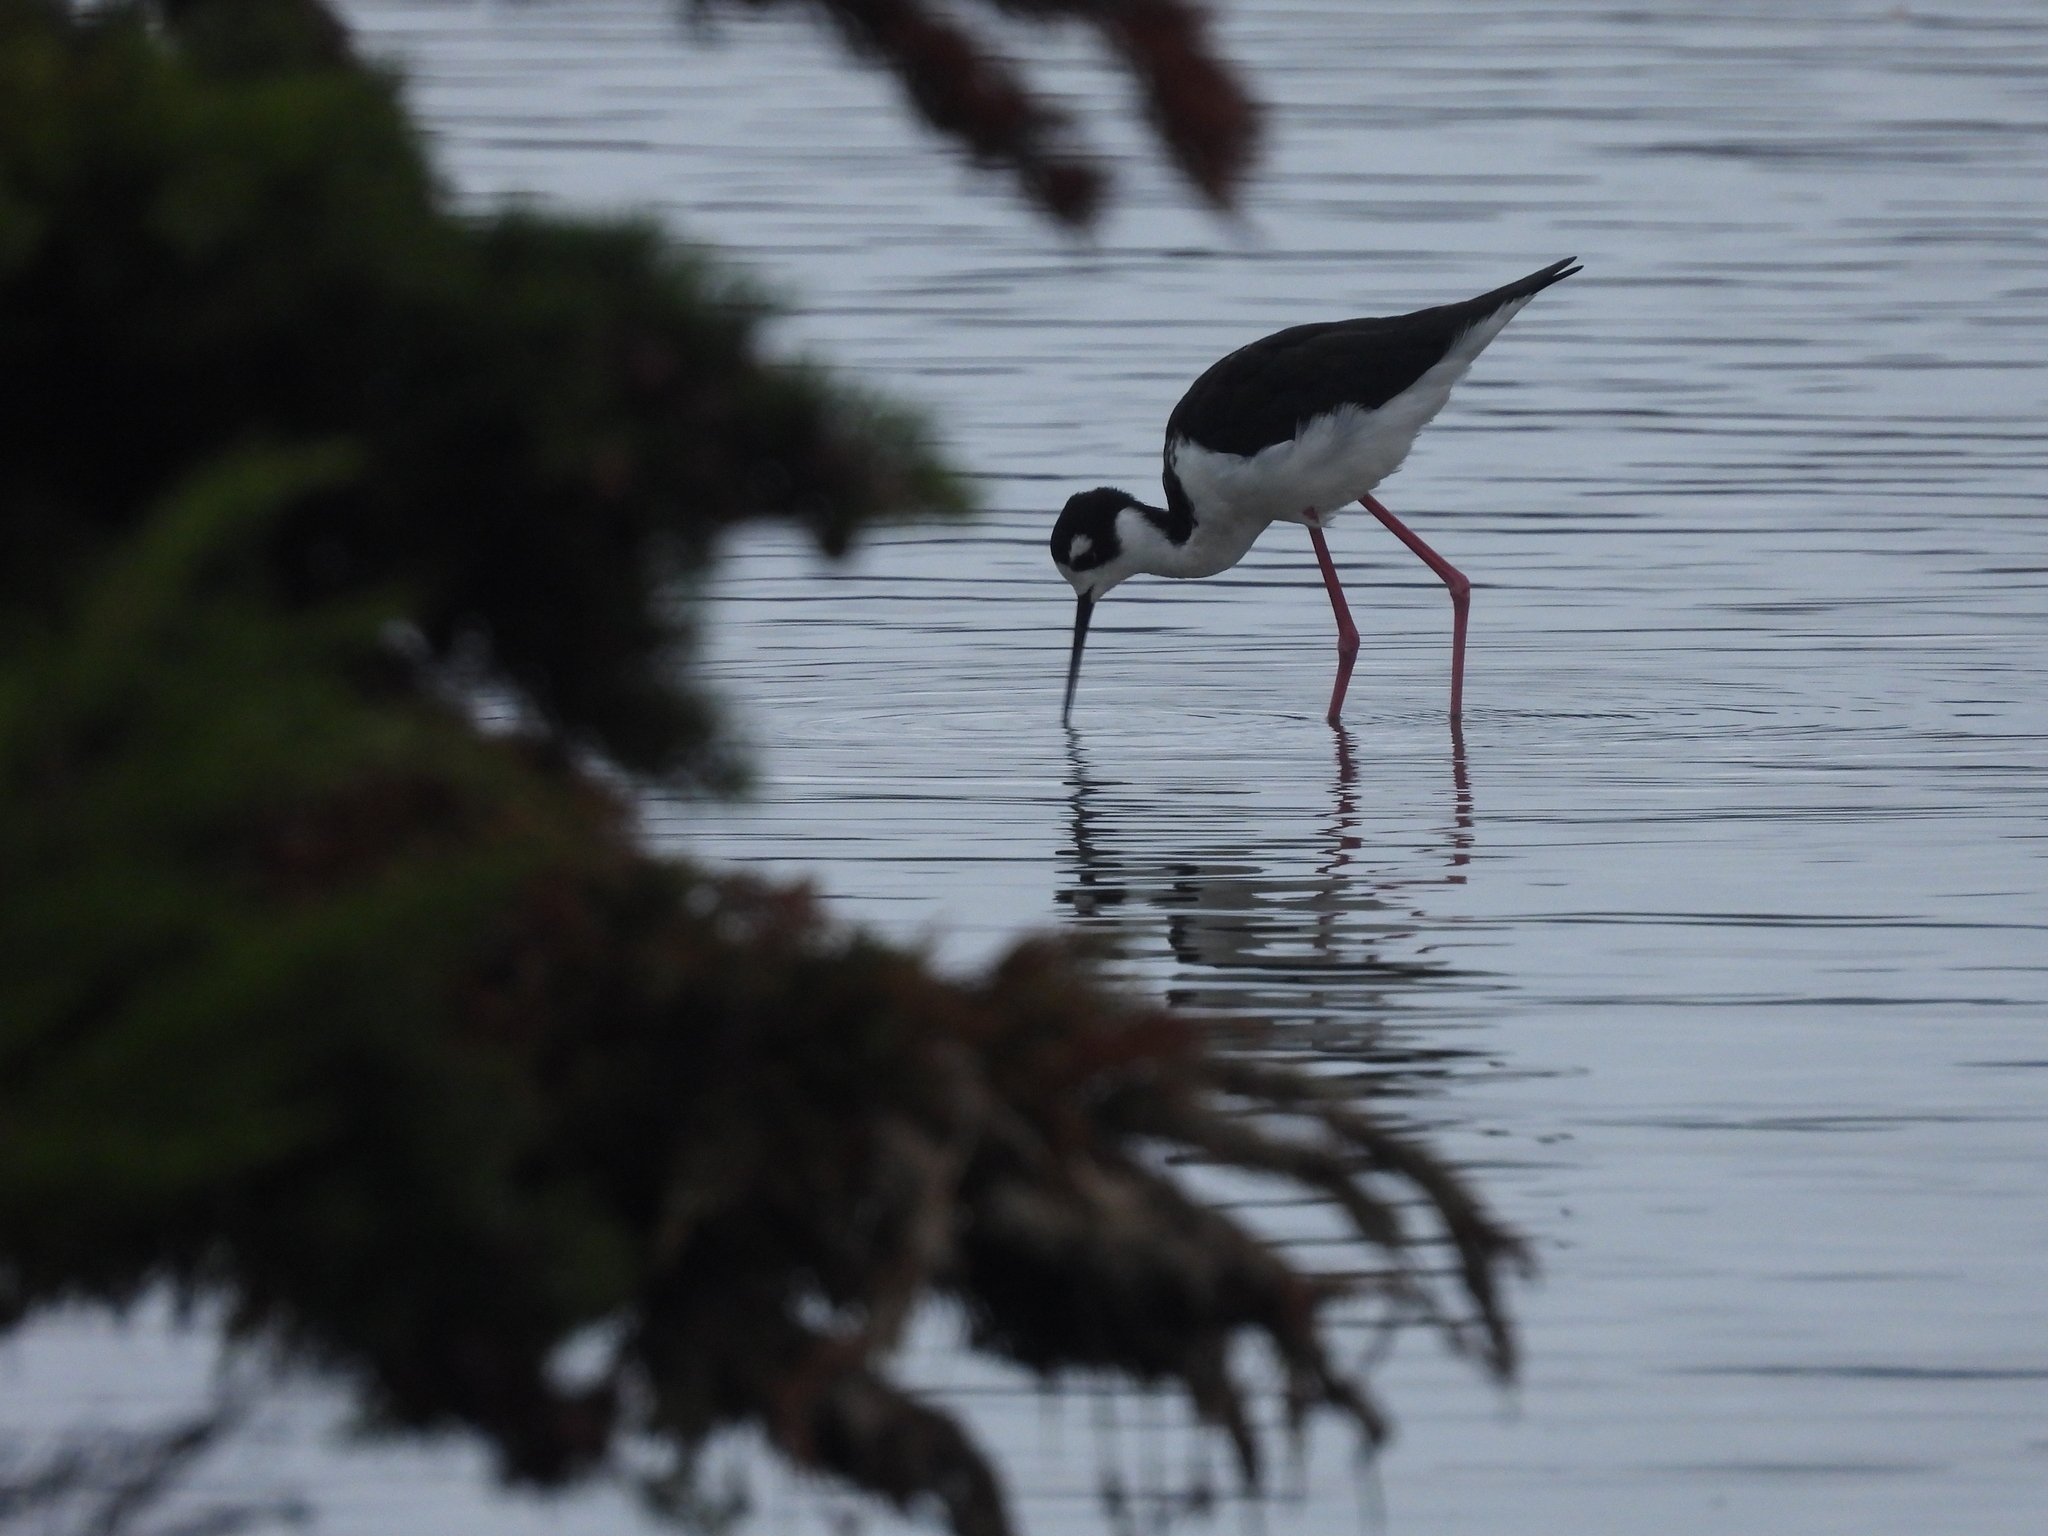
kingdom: Animalia
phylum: Chordata
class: Aves
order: Charadriiformes
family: Recurvirostridae
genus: Himantopus
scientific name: Himantopus mexicanus
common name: Black-necked stilt
